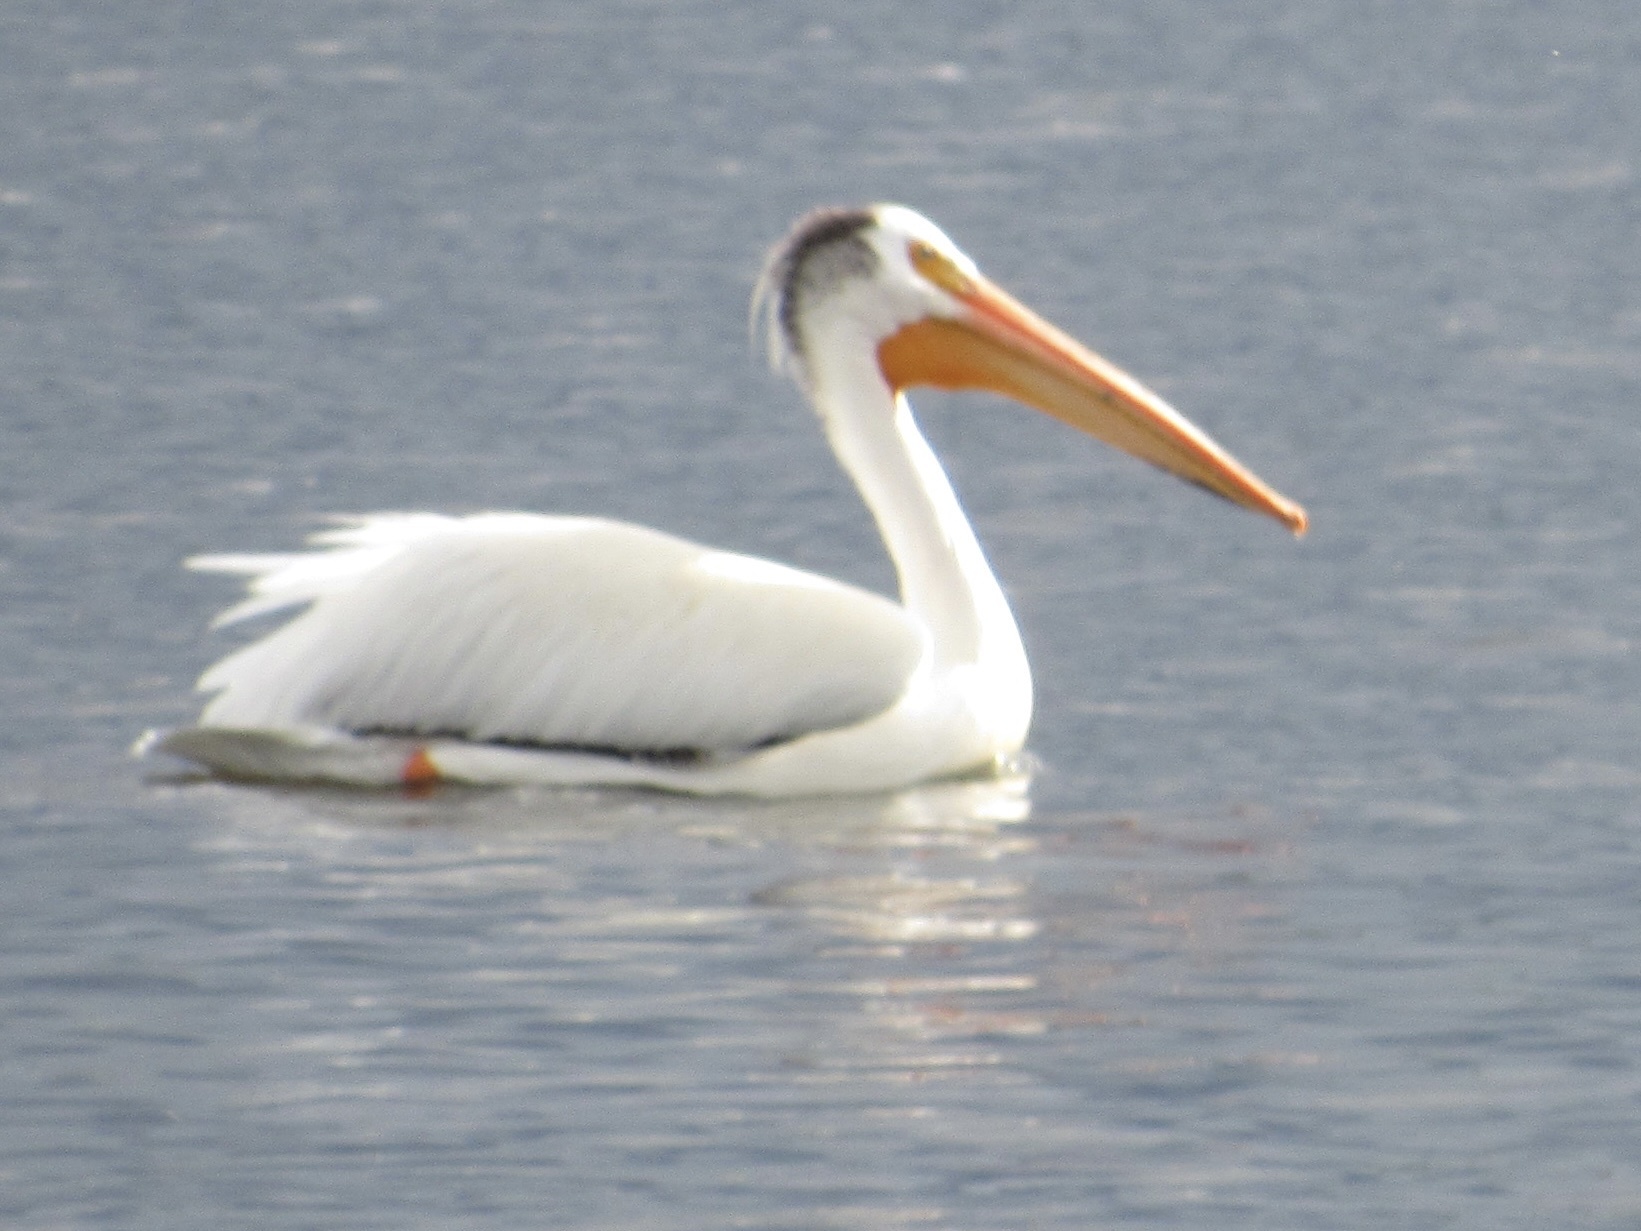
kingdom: Animalia
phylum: Chordata
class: Aves
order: Pelecaniformes
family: Pelecanidae
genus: Pelecanus
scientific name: Pelecanus erythrorhynchos
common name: American white pelican
